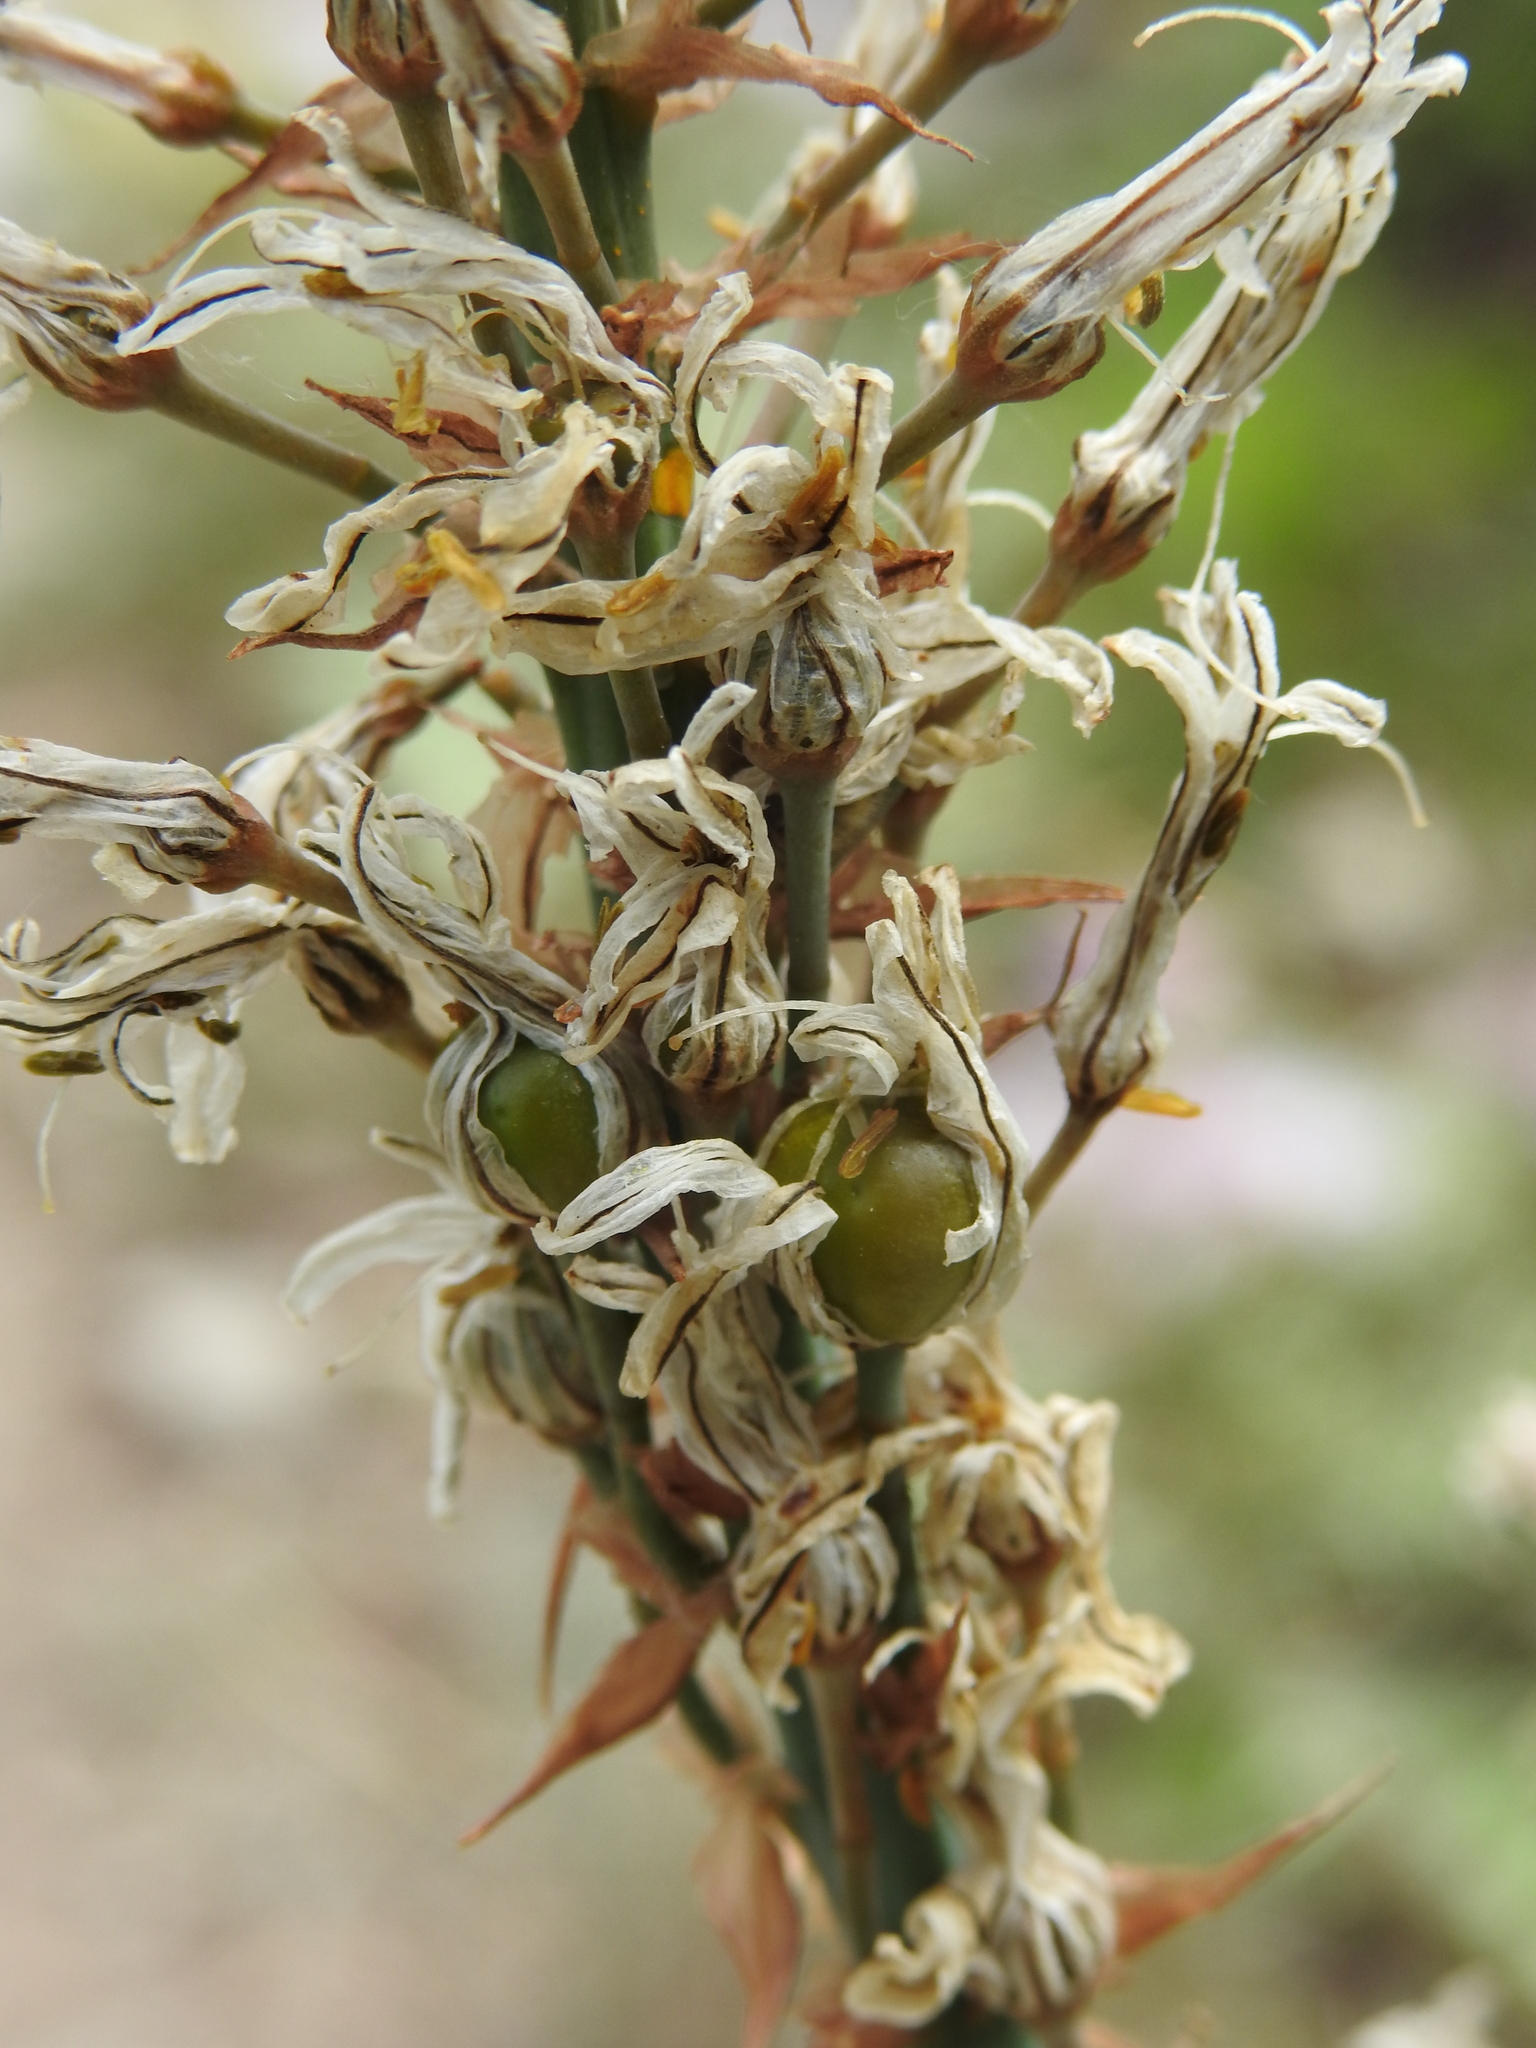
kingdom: Plantae
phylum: Tracheophyta
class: Liliopsida
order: Asparagales
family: Asphodelaceae
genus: Asphodelus
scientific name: Asphodelus ramosus
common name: Silverrod
